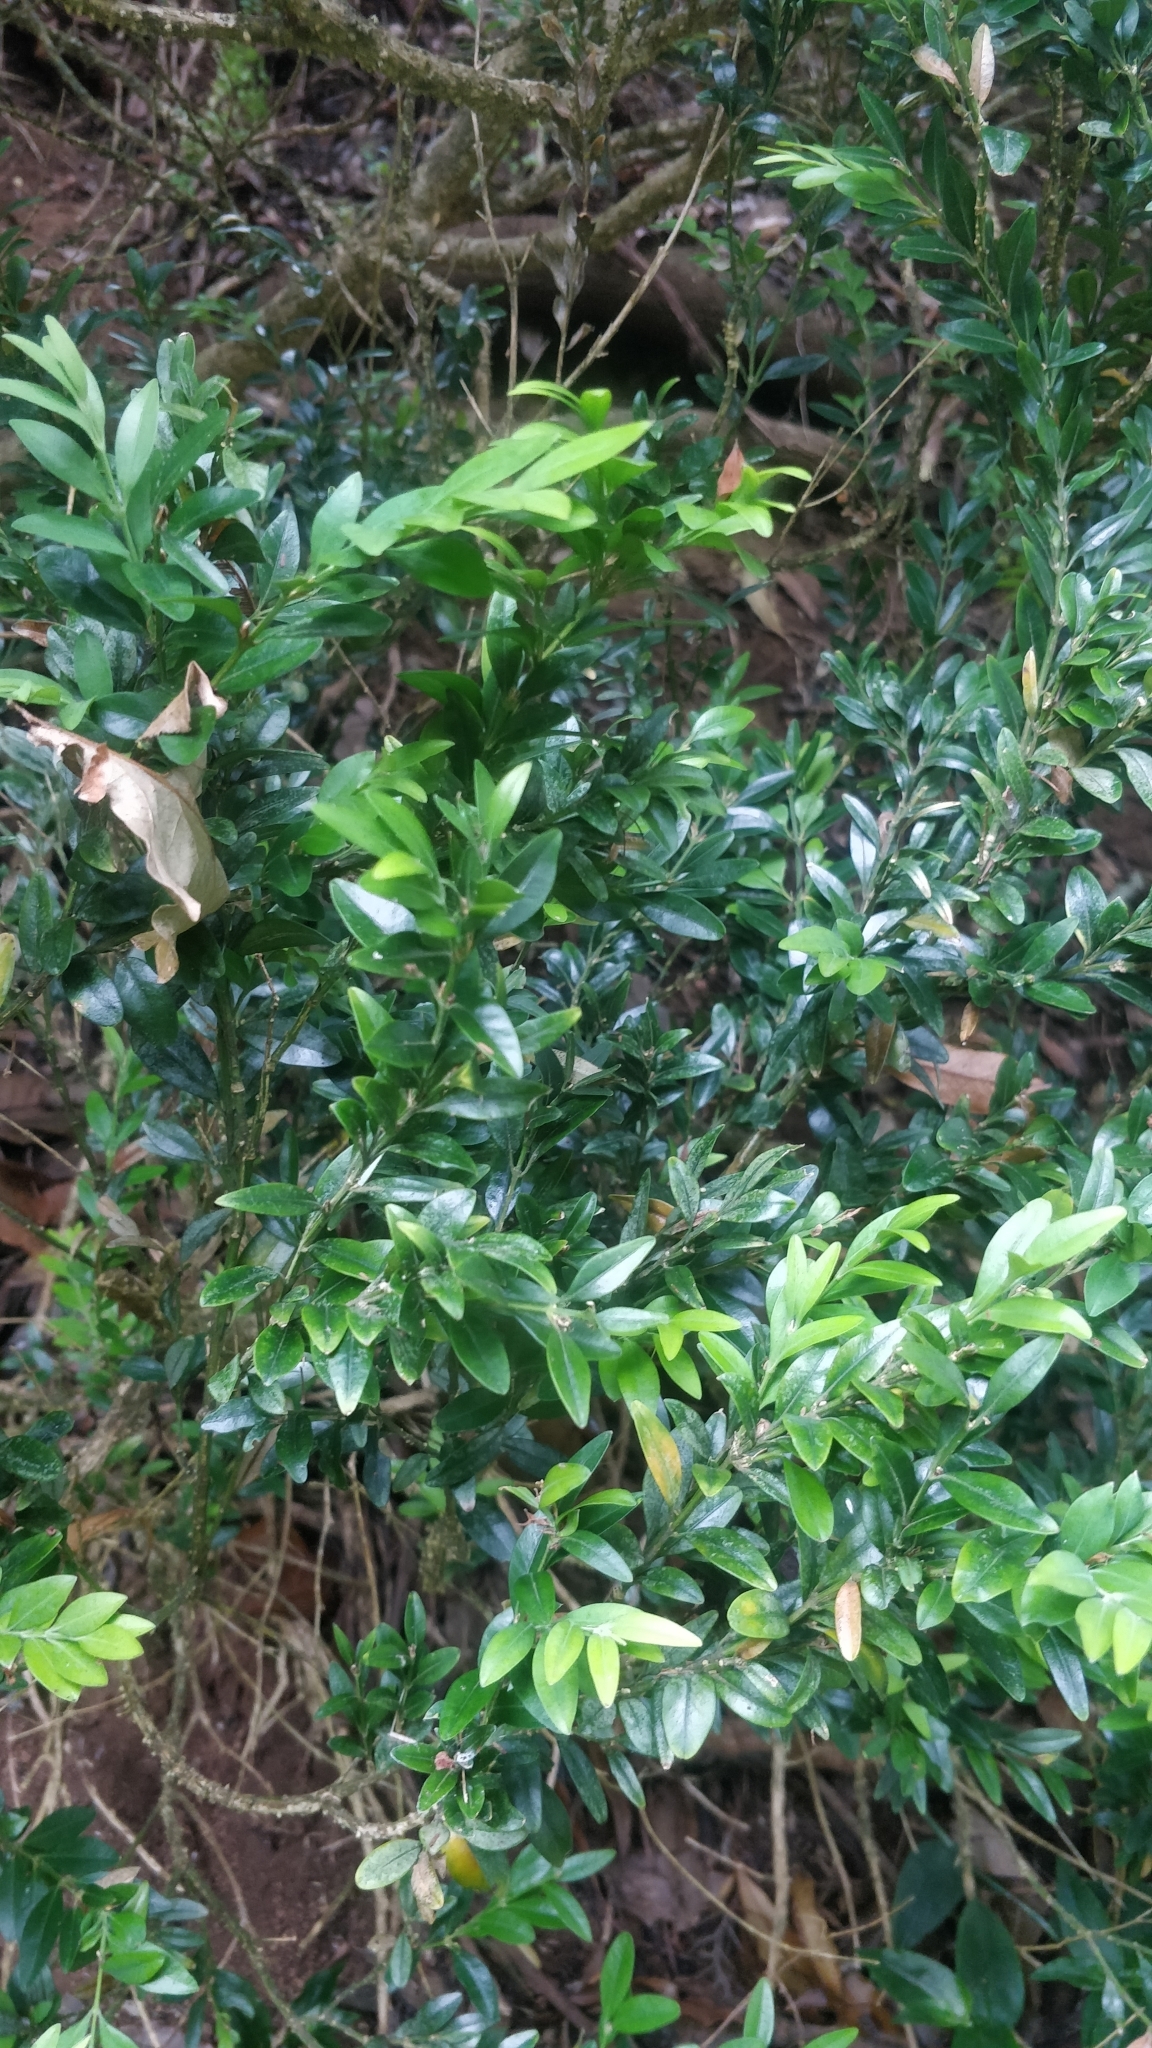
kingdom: Plantae
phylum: Tracheophyta
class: Magnoliopsida
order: Buxales
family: Buxaceae
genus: Buxus
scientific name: Buxus sempervirens
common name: Box
